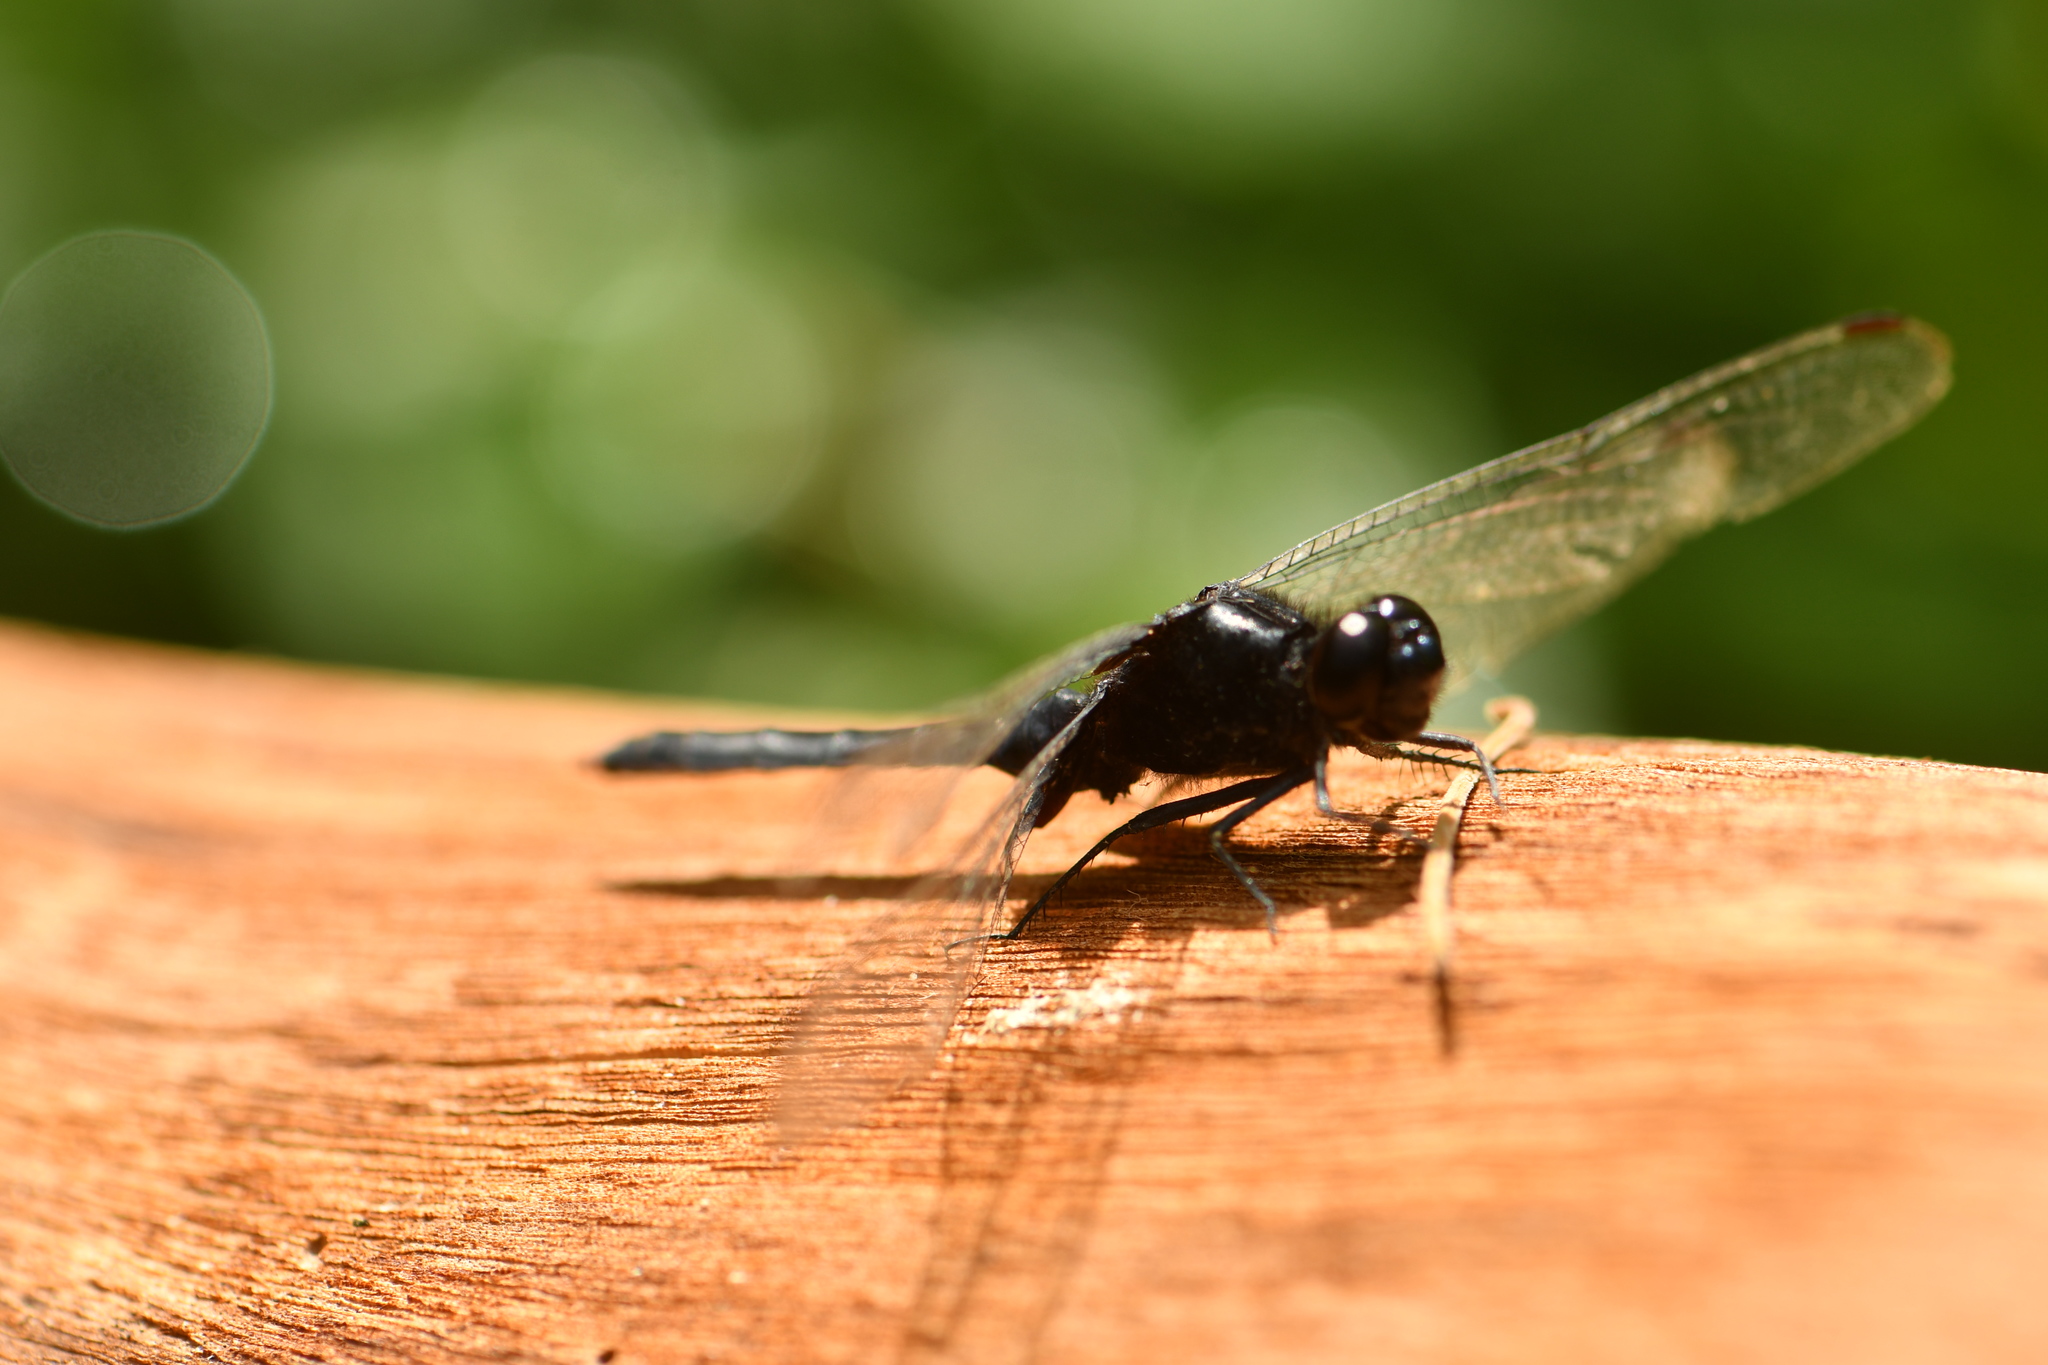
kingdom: Animalia
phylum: Arthropoda
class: Insecta
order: Odonata
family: Libellulidae
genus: Erythemis
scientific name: Erythemis attala
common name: Black pondhawk
